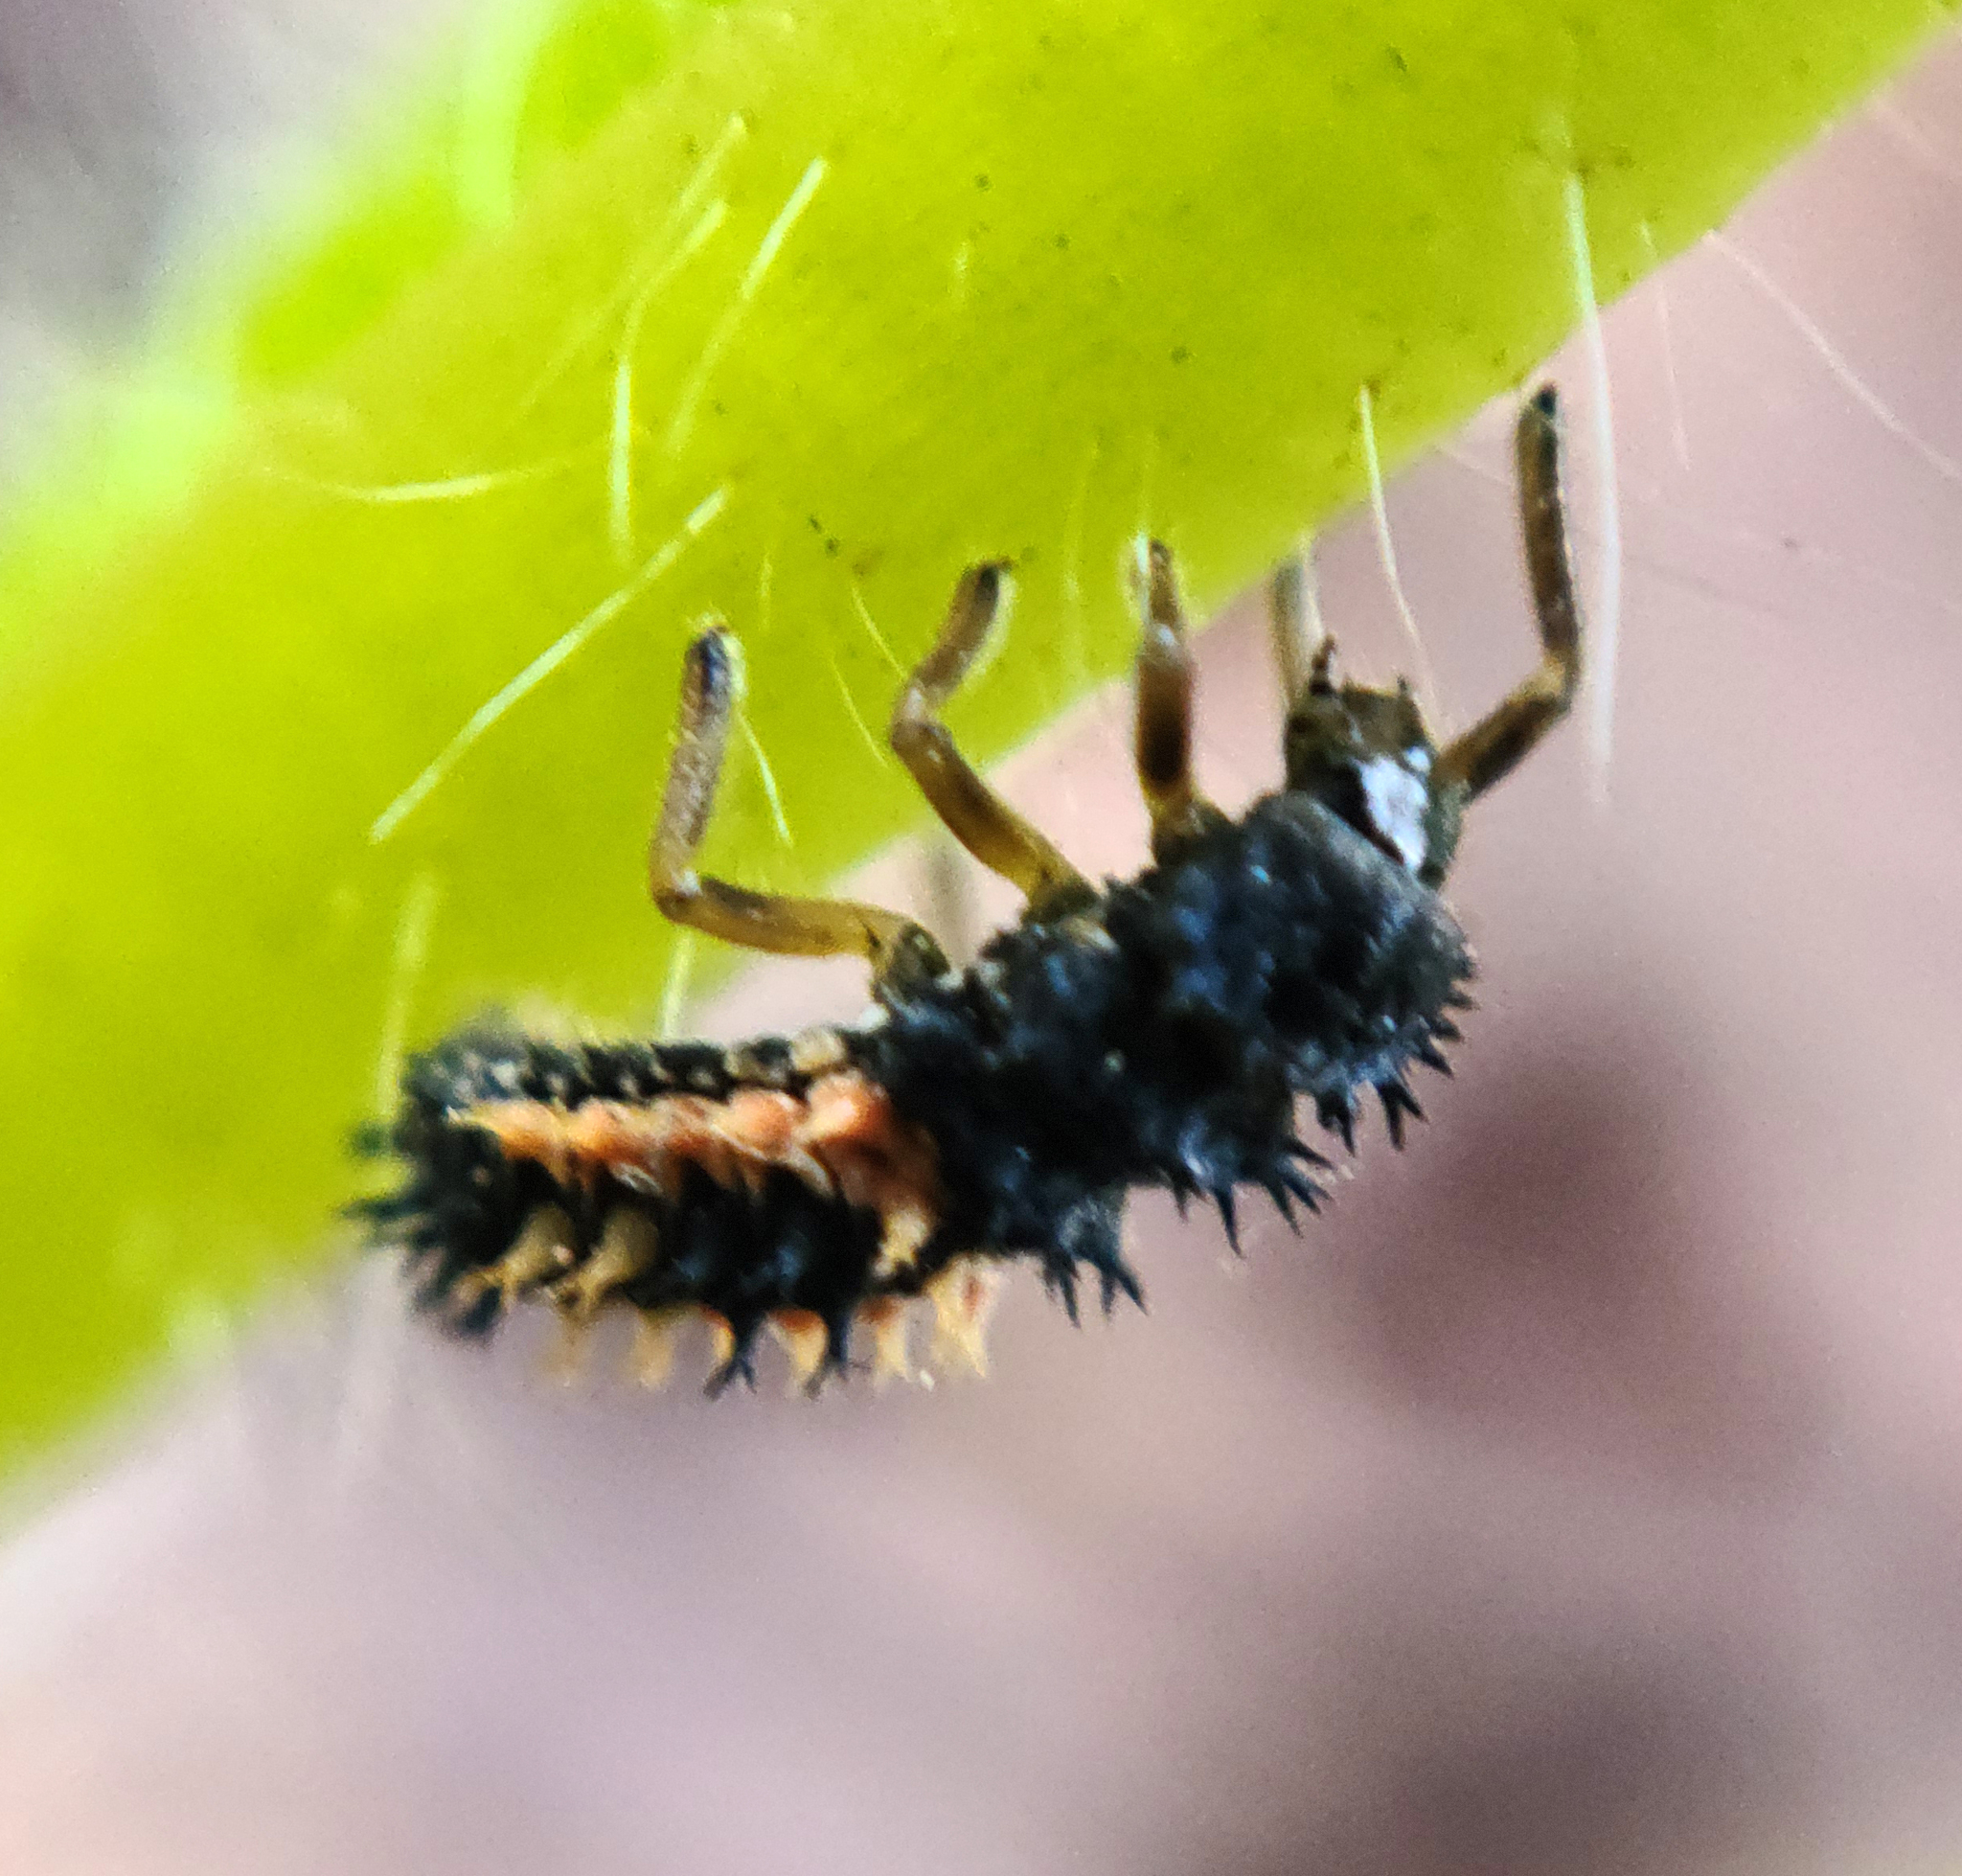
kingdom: Animalia
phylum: Arthropoda
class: Insecta
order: Coleoptera
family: Coccinellidae
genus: Harmonia
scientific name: Harmonia axyridis
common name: Harlequin ladybird
